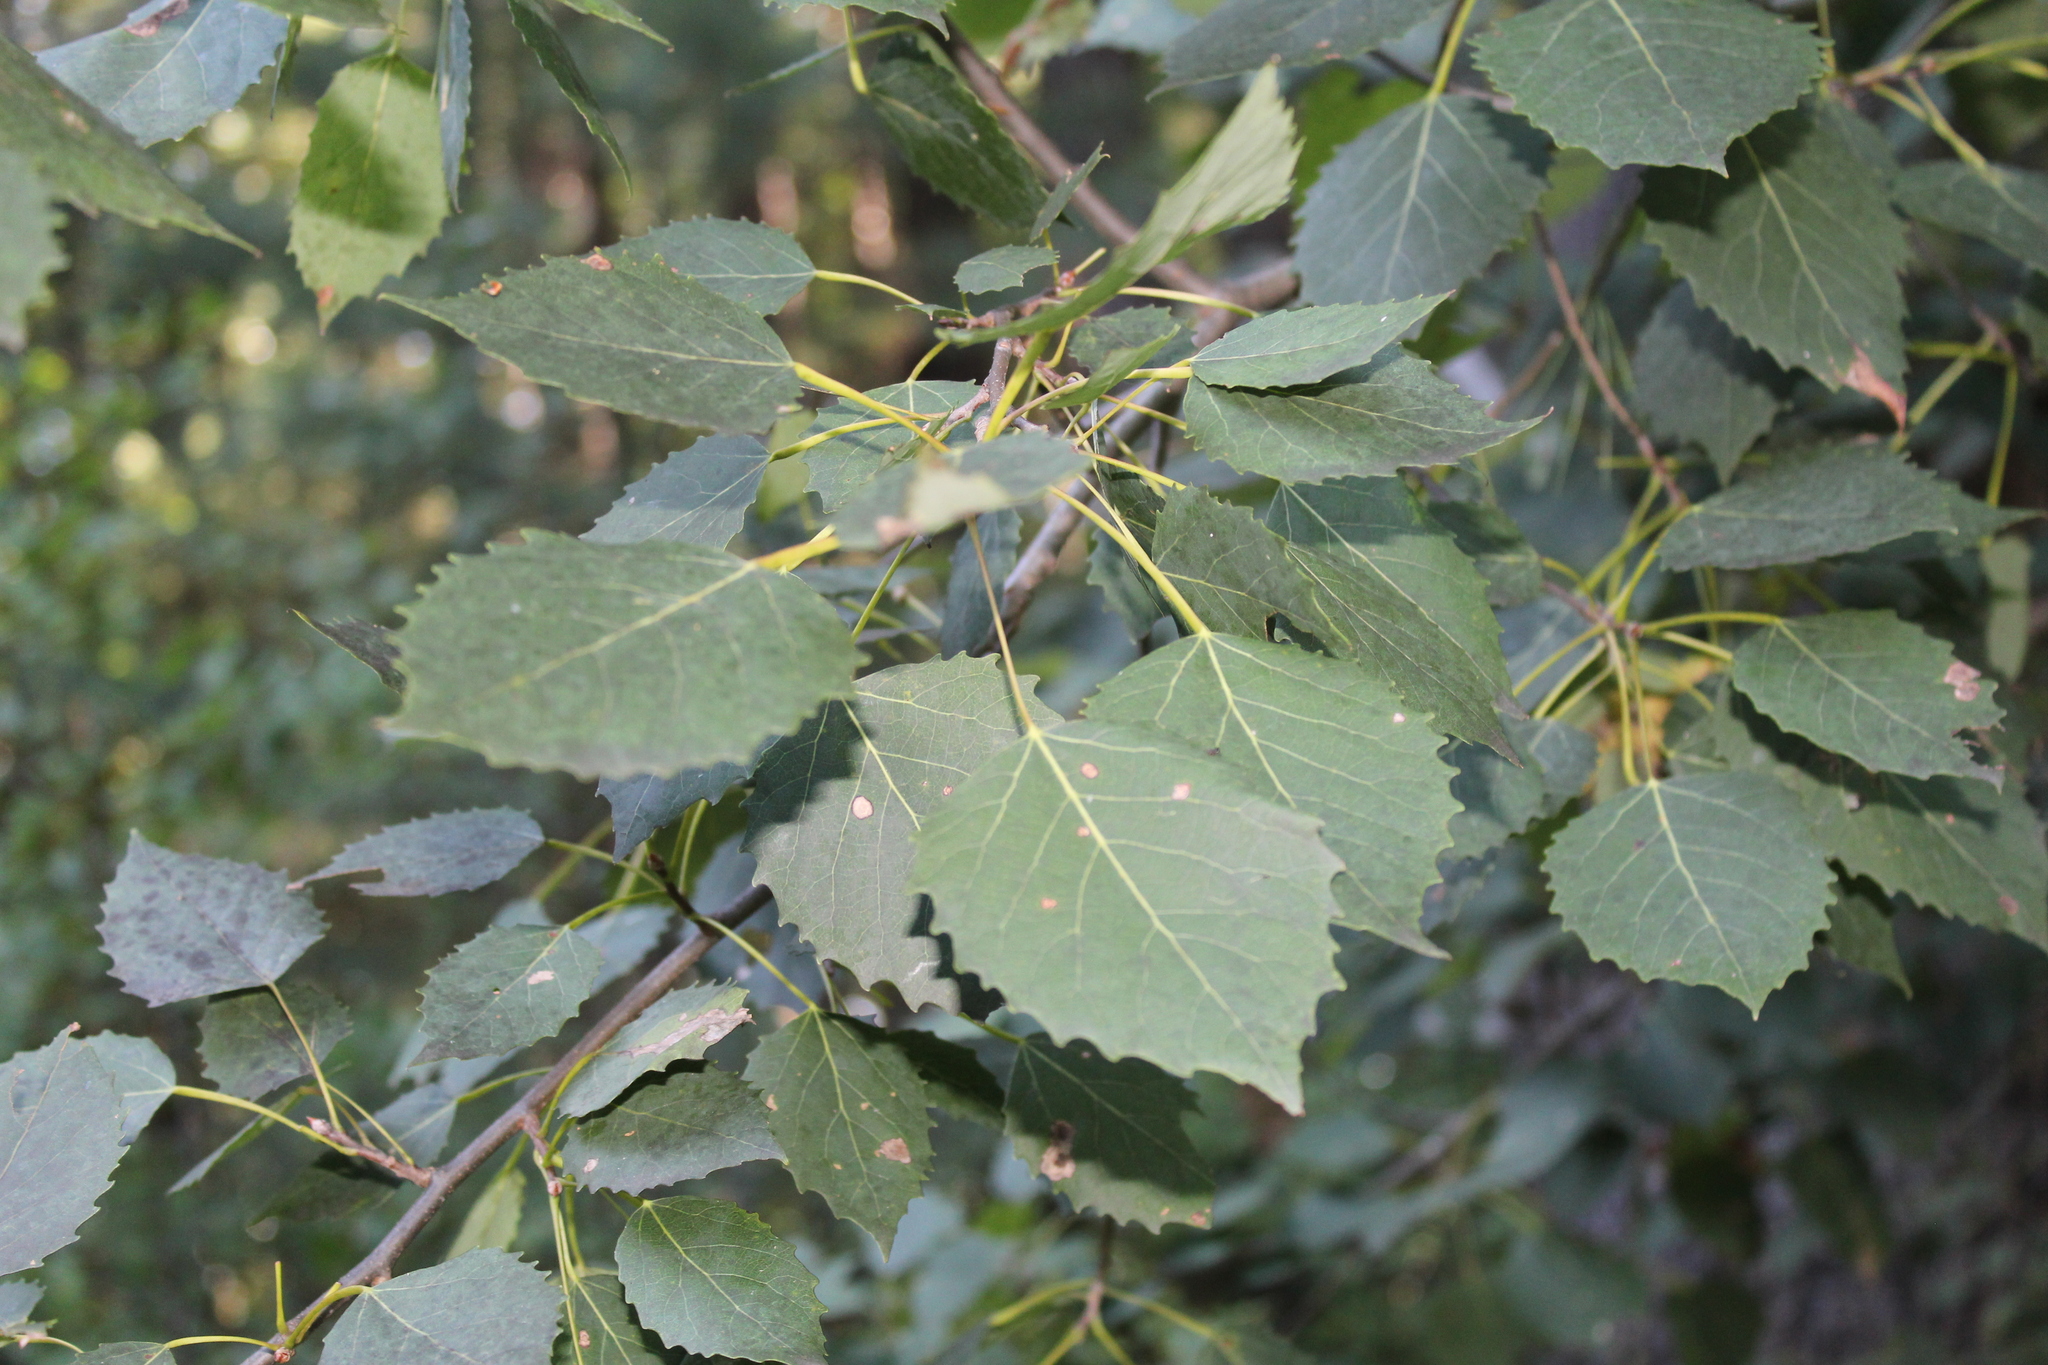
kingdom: Plantae
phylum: Tracheophyta
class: Magnoliopsida
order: Malpighiales
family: Salicaceae
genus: Populus
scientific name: Populus grandidentata
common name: Bigtooth aspen
